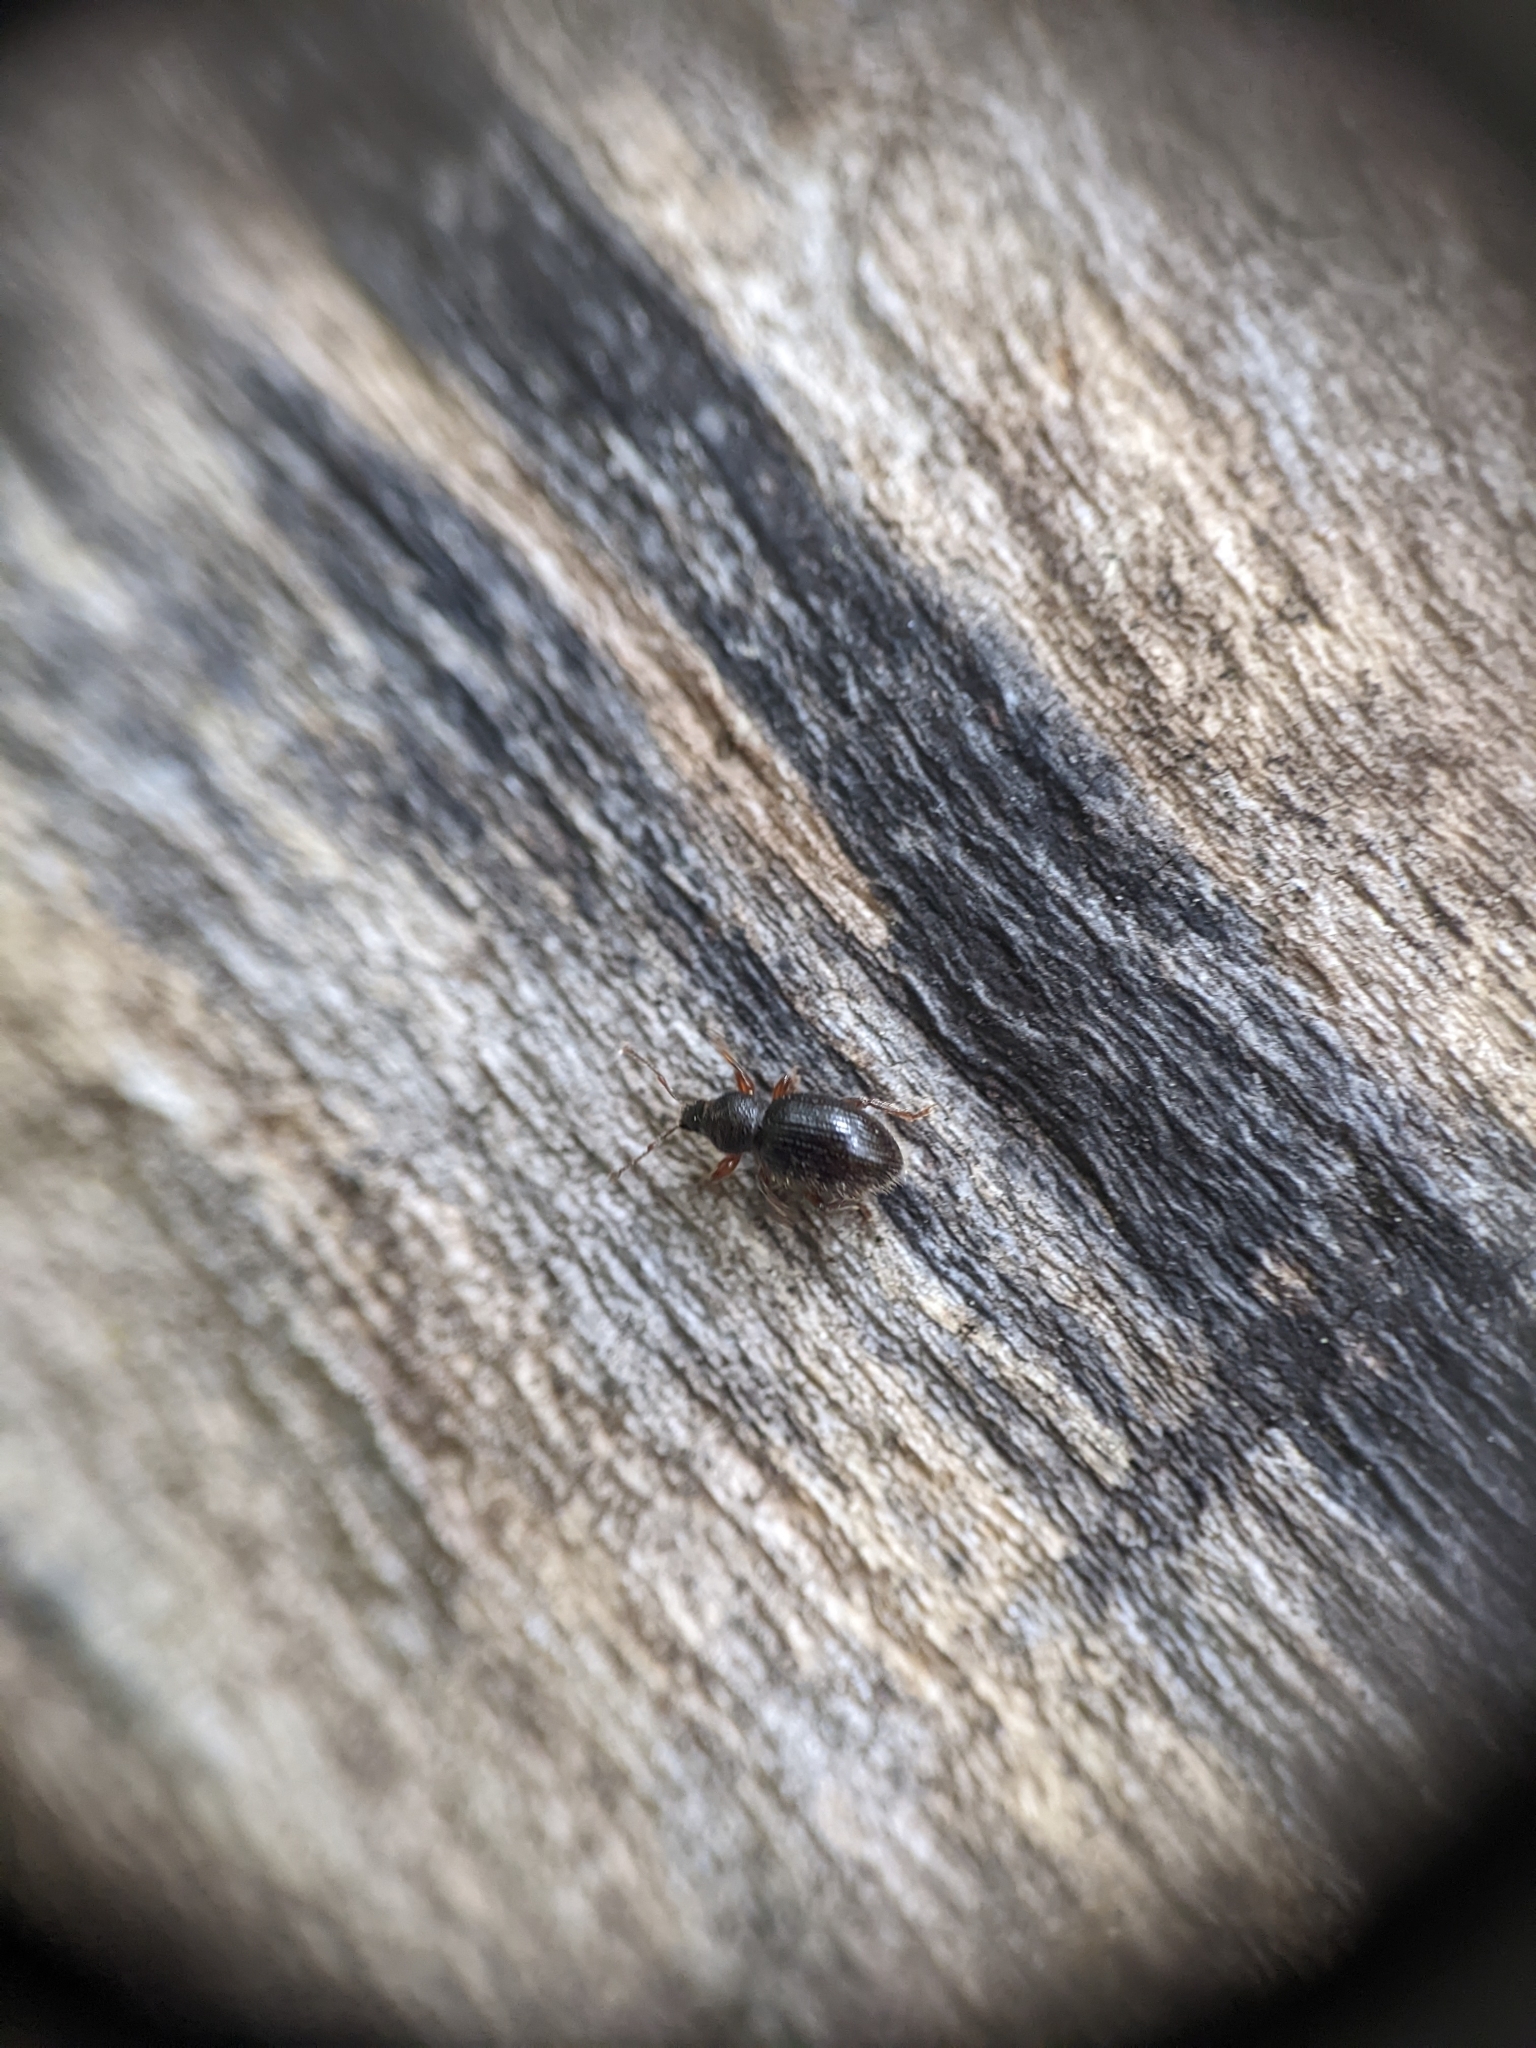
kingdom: Animalia
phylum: Arthropoda
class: Insecta
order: Coleoptera
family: Curculionidae
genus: Exomias
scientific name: Exomias pellucidus
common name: Hairy spider weevil
